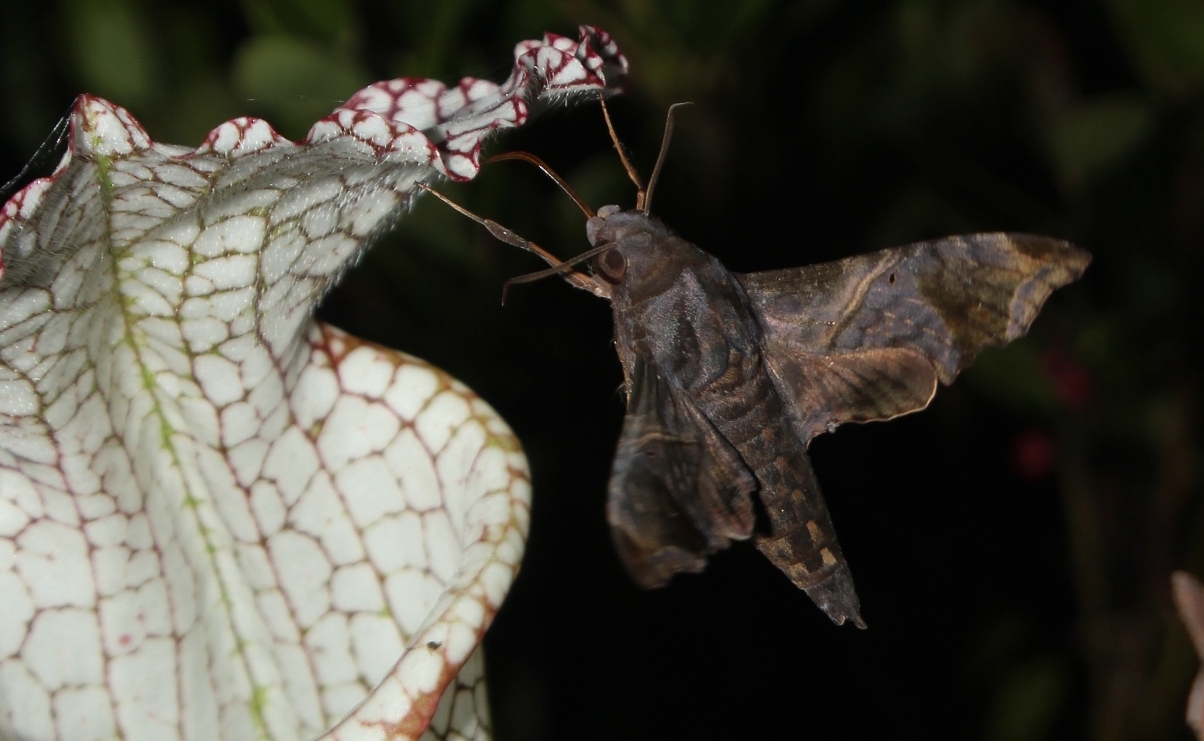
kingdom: Animalia
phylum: Arthropoda
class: Insecta
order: Lepidoptera
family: Sphingidae
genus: Enyo
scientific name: Enyo lugubris
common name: Mournful sphinx
